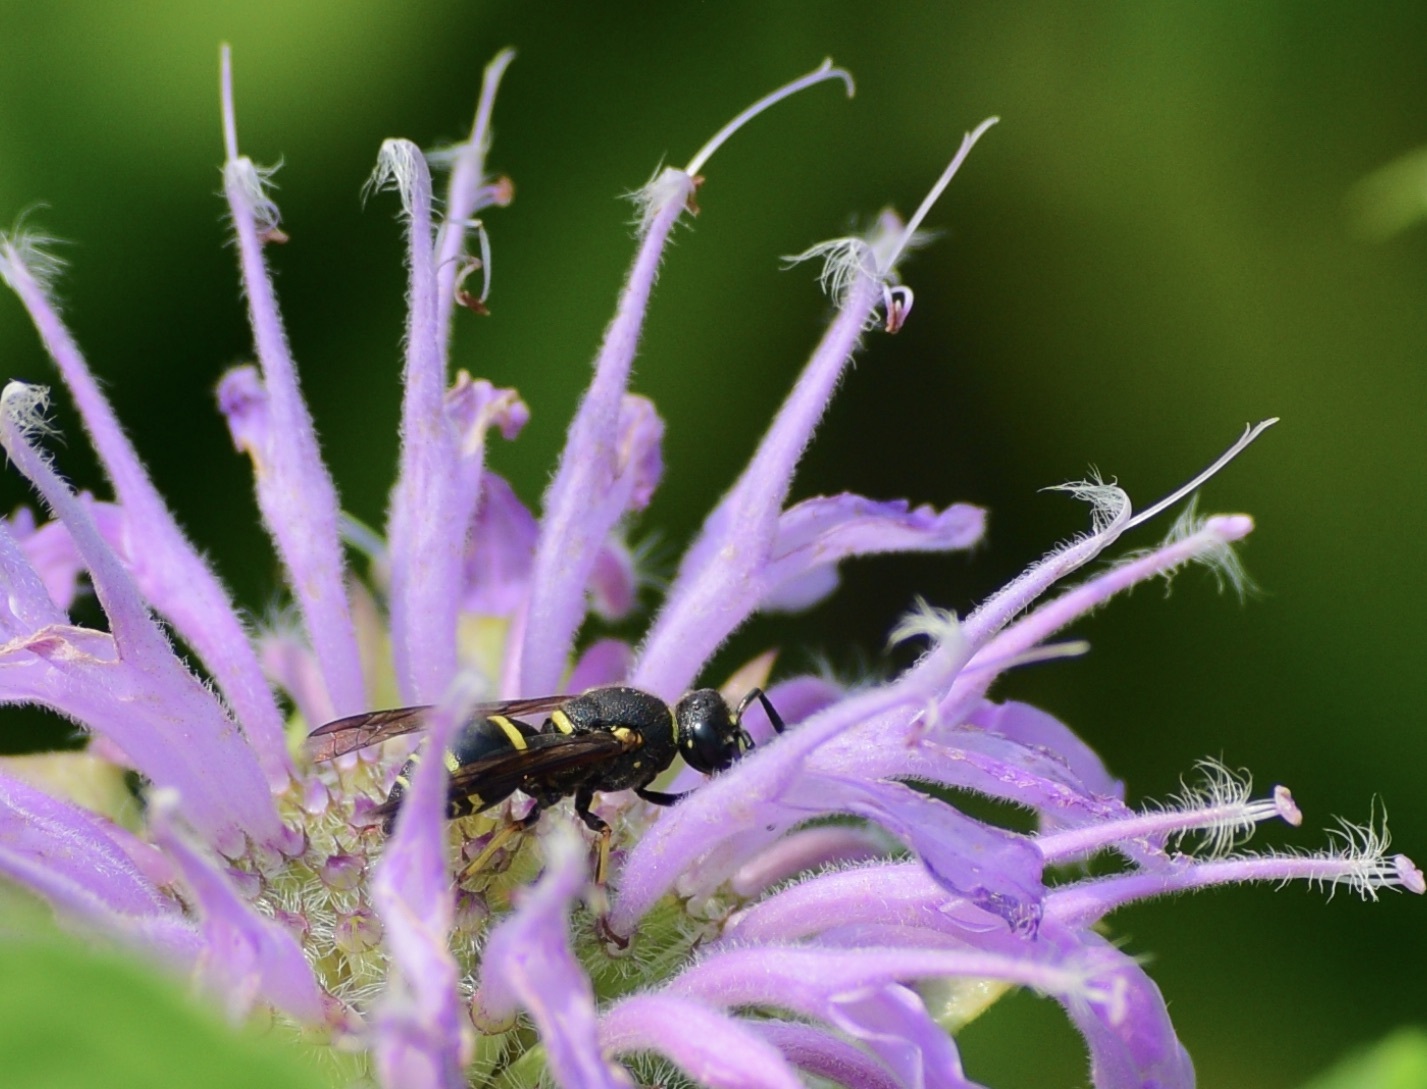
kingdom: Animalia
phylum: Arthropoda
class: Insecta
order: Hymenoptera
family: Eumenidae
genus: Euodynerus
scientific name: Euodynerus foraminatus
